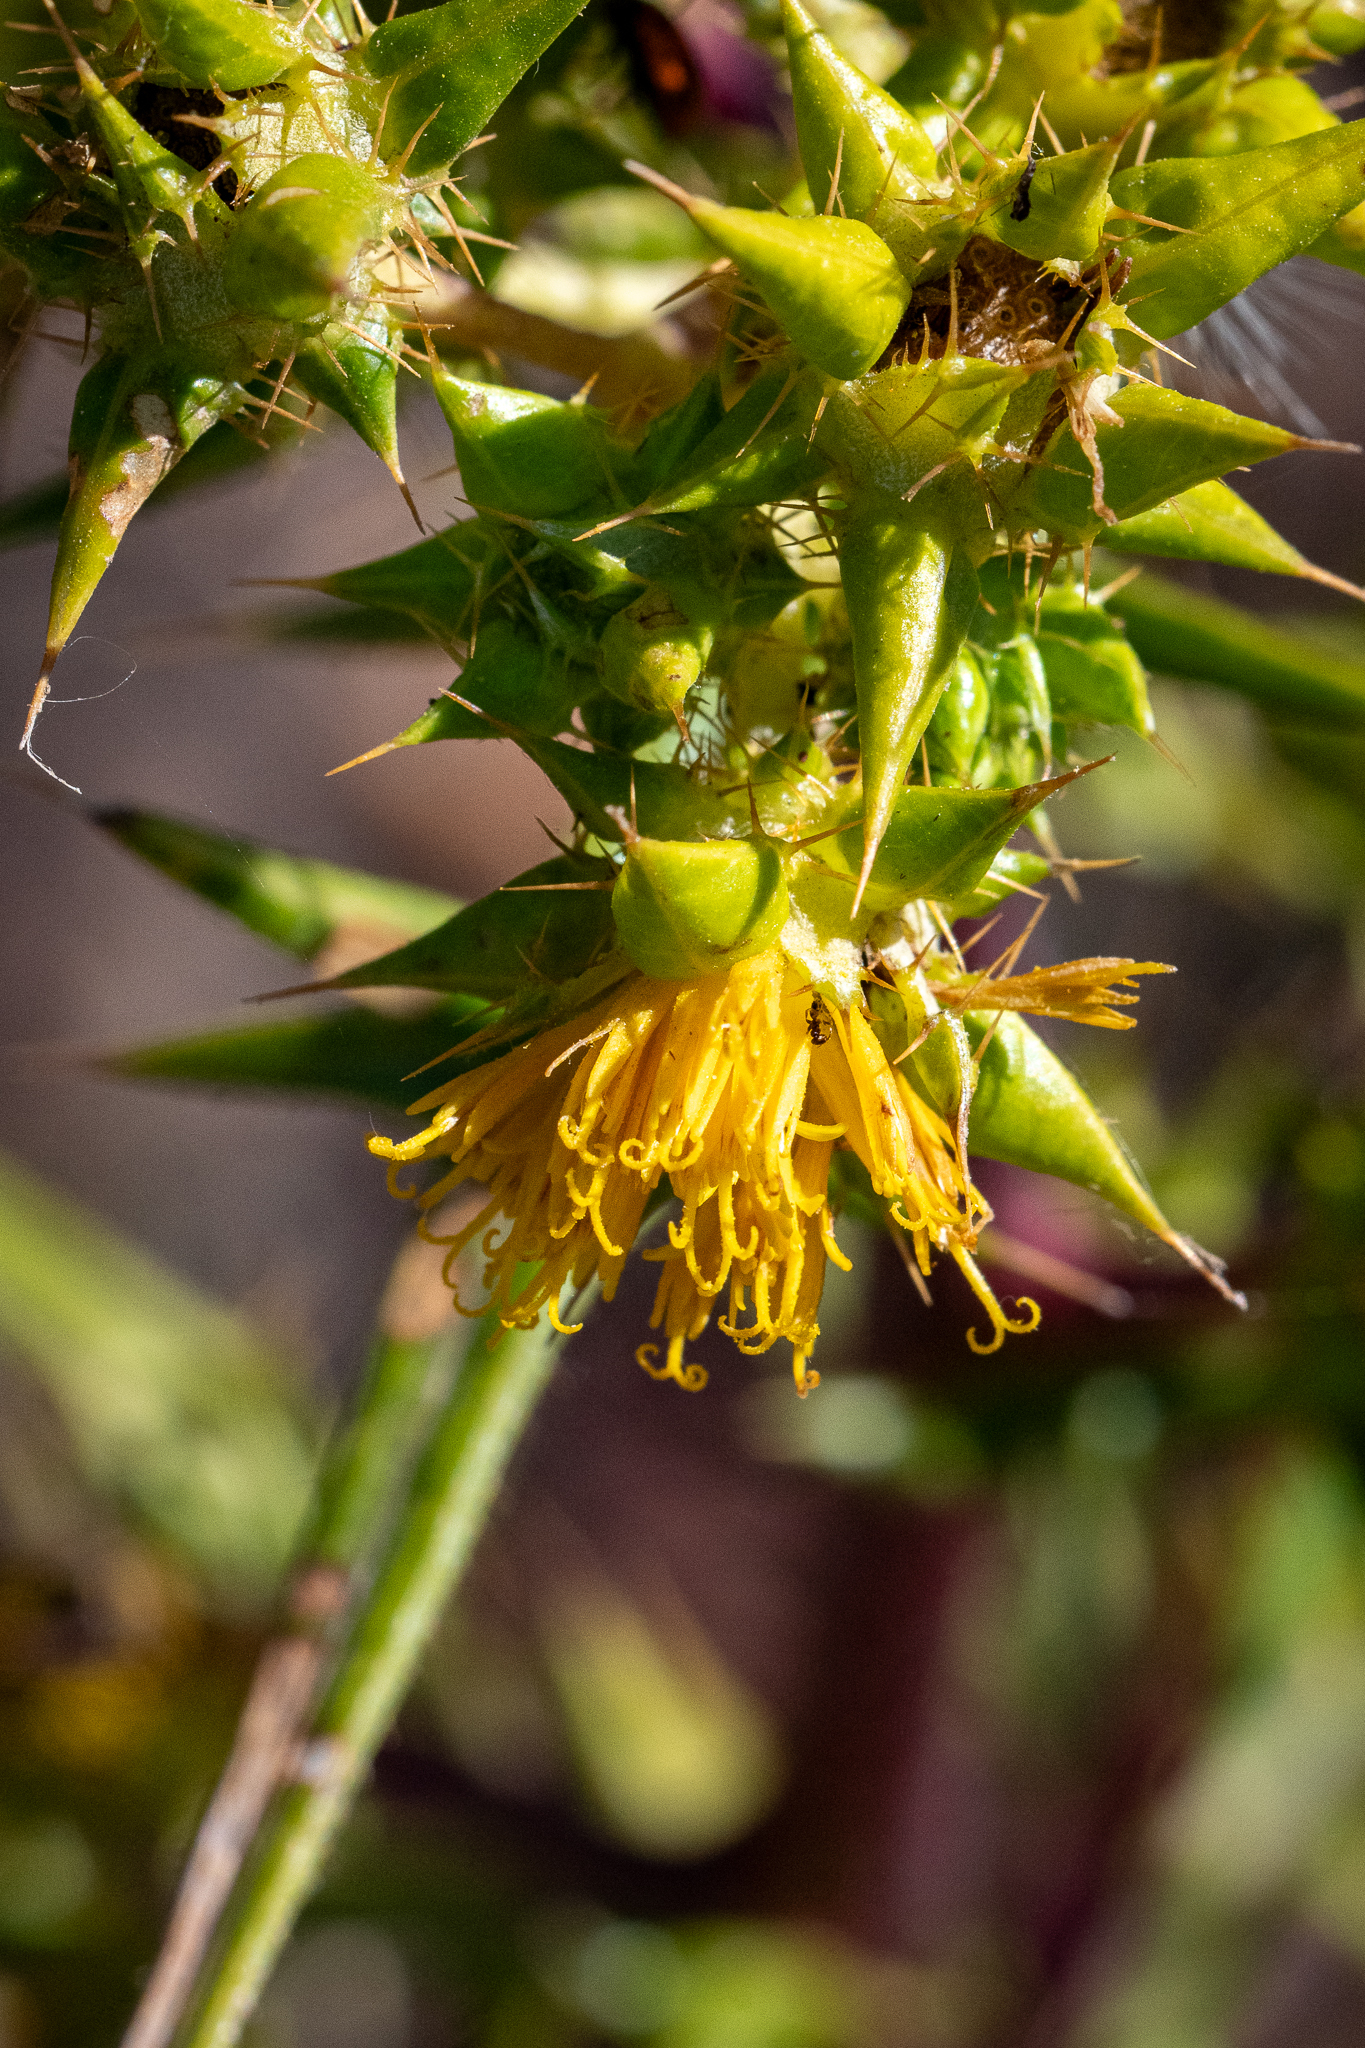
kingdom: Plantae
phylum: Tracheophyta
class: Magnoliopsida
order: Asterales
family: Asteraceae
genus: Berkheya
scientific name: Berkheya rigida
